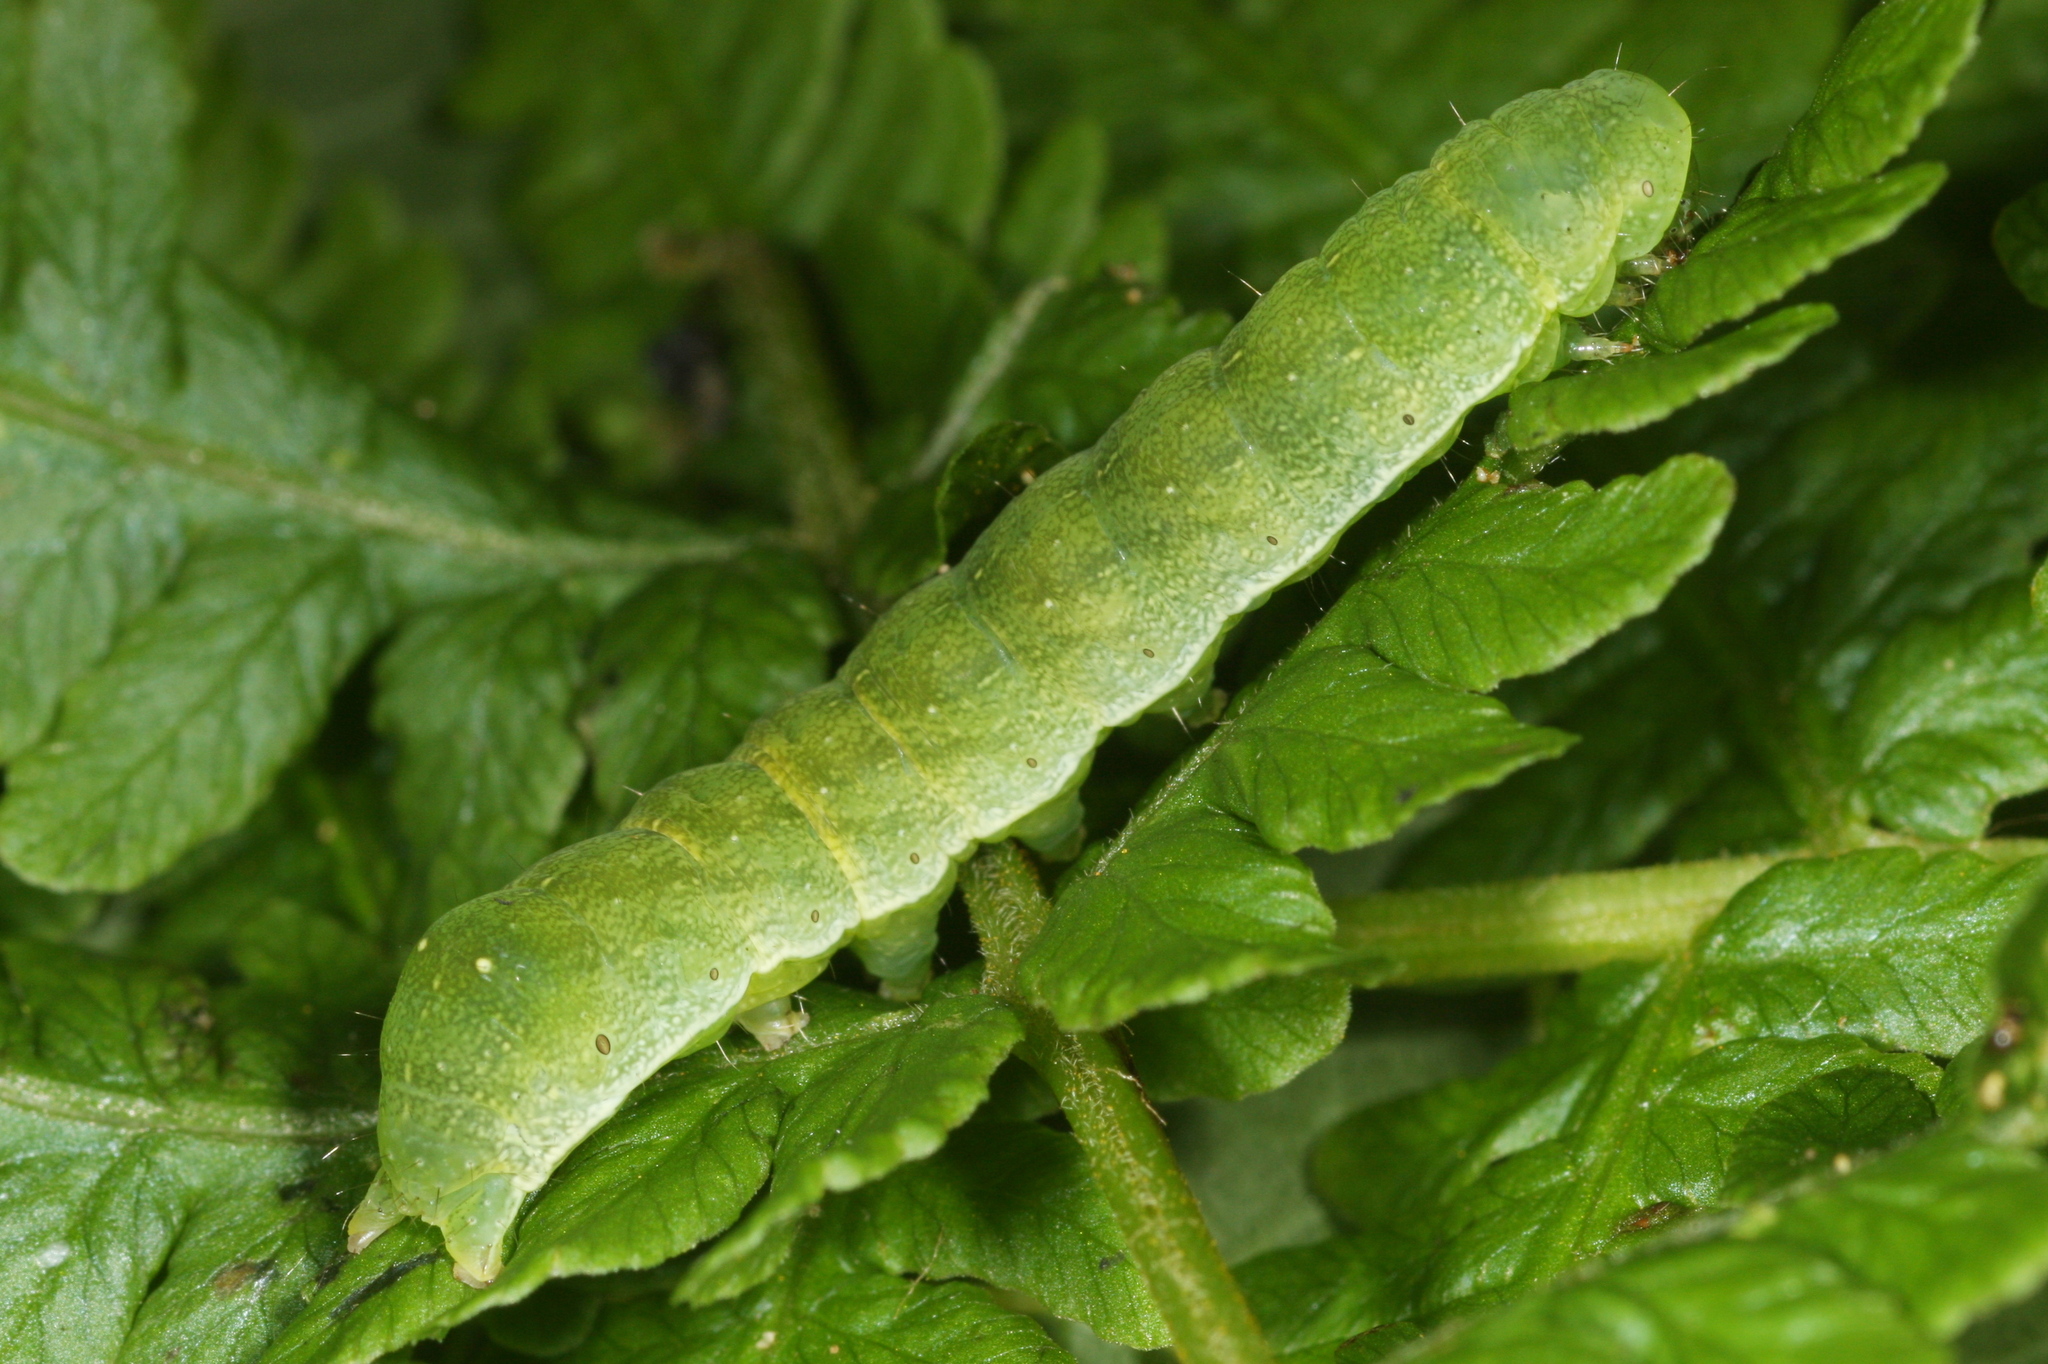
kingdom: Animalia
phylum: Arthropoda
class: Insecta
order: Lepidoptera
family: Noctuidae
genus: Euplexia
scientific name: Euplexia lucipara
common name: Small angle shades
